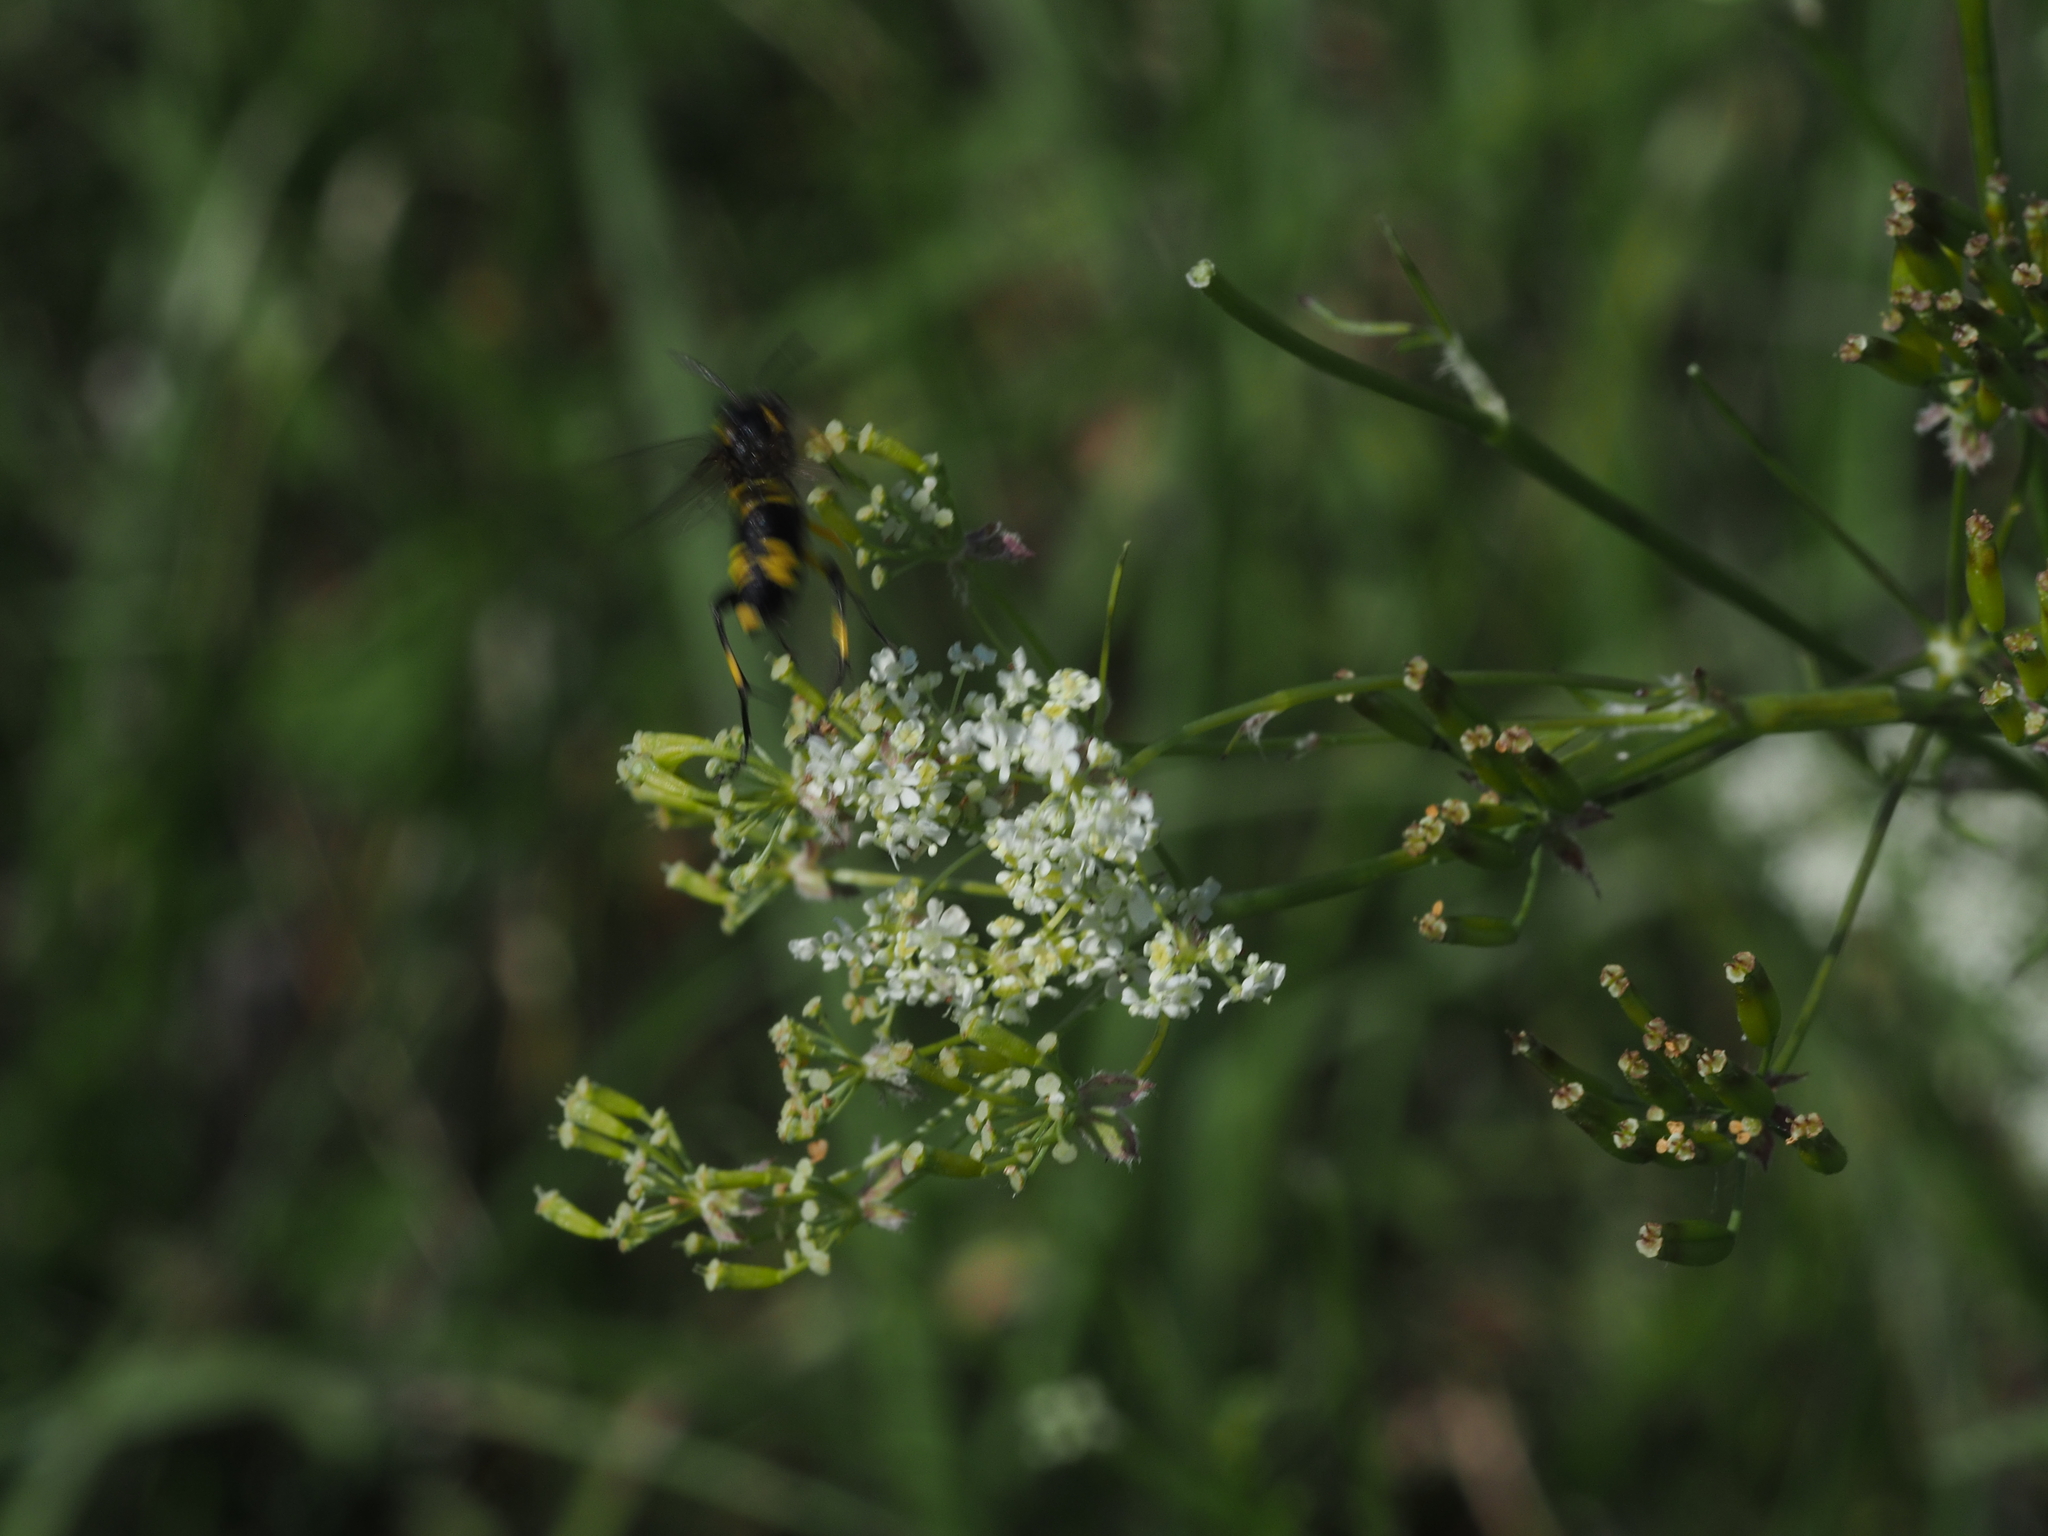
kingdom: Animalia
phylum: Arthropoda
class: Insecta
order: Hymenoptera
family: Tenthredinidae
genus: Macrophya
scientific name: Macrophya montana
